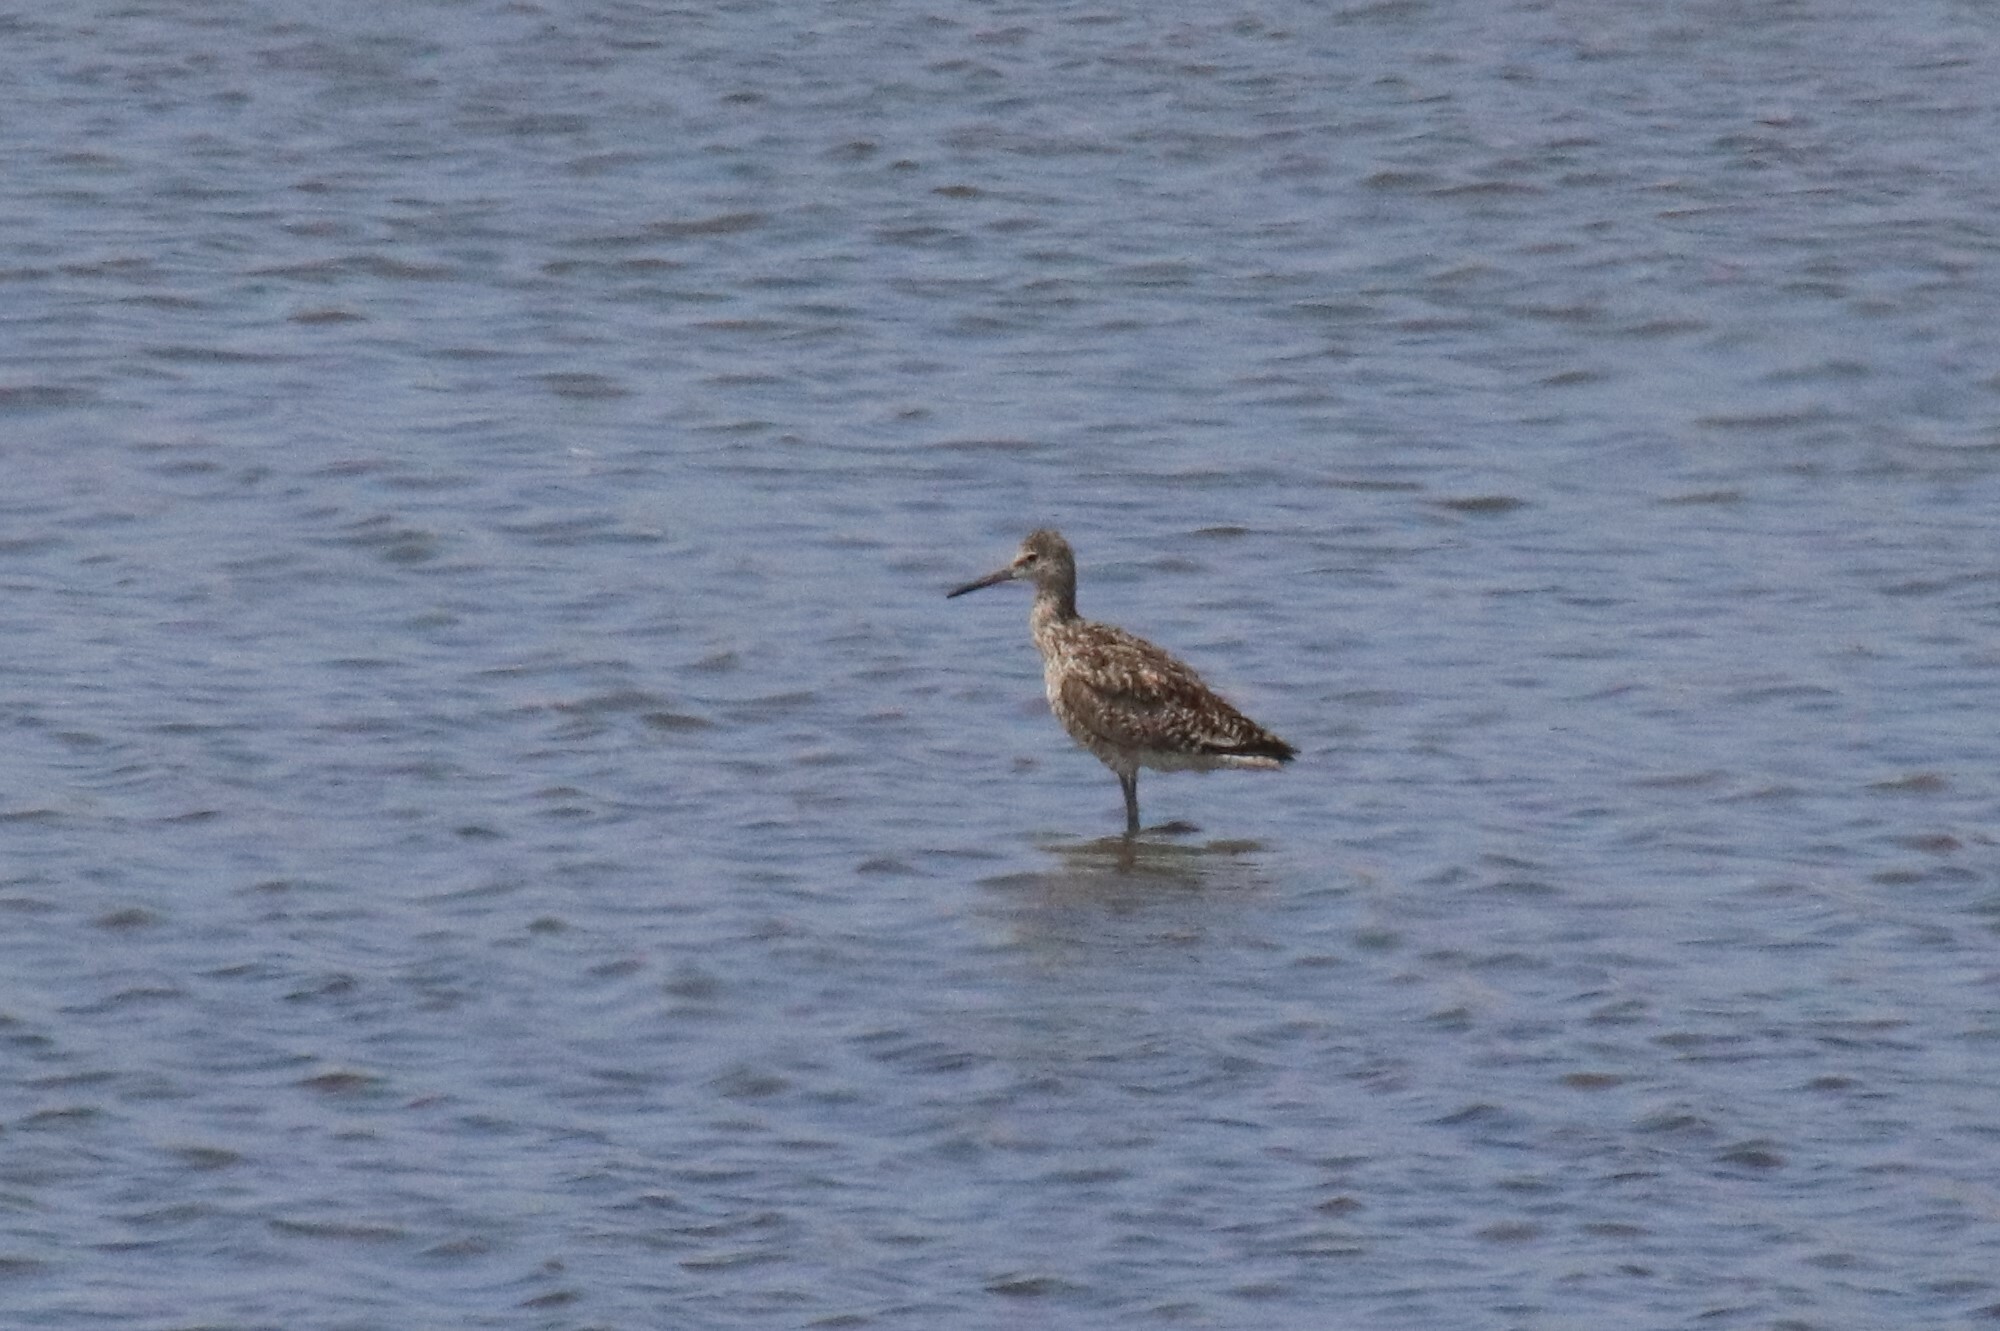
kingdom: Animalia
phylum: Chordata
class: Aves
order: Charadriiformes
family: Scolopacidae
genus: Tringa
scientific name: Tringa semipalmata
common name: Willet
